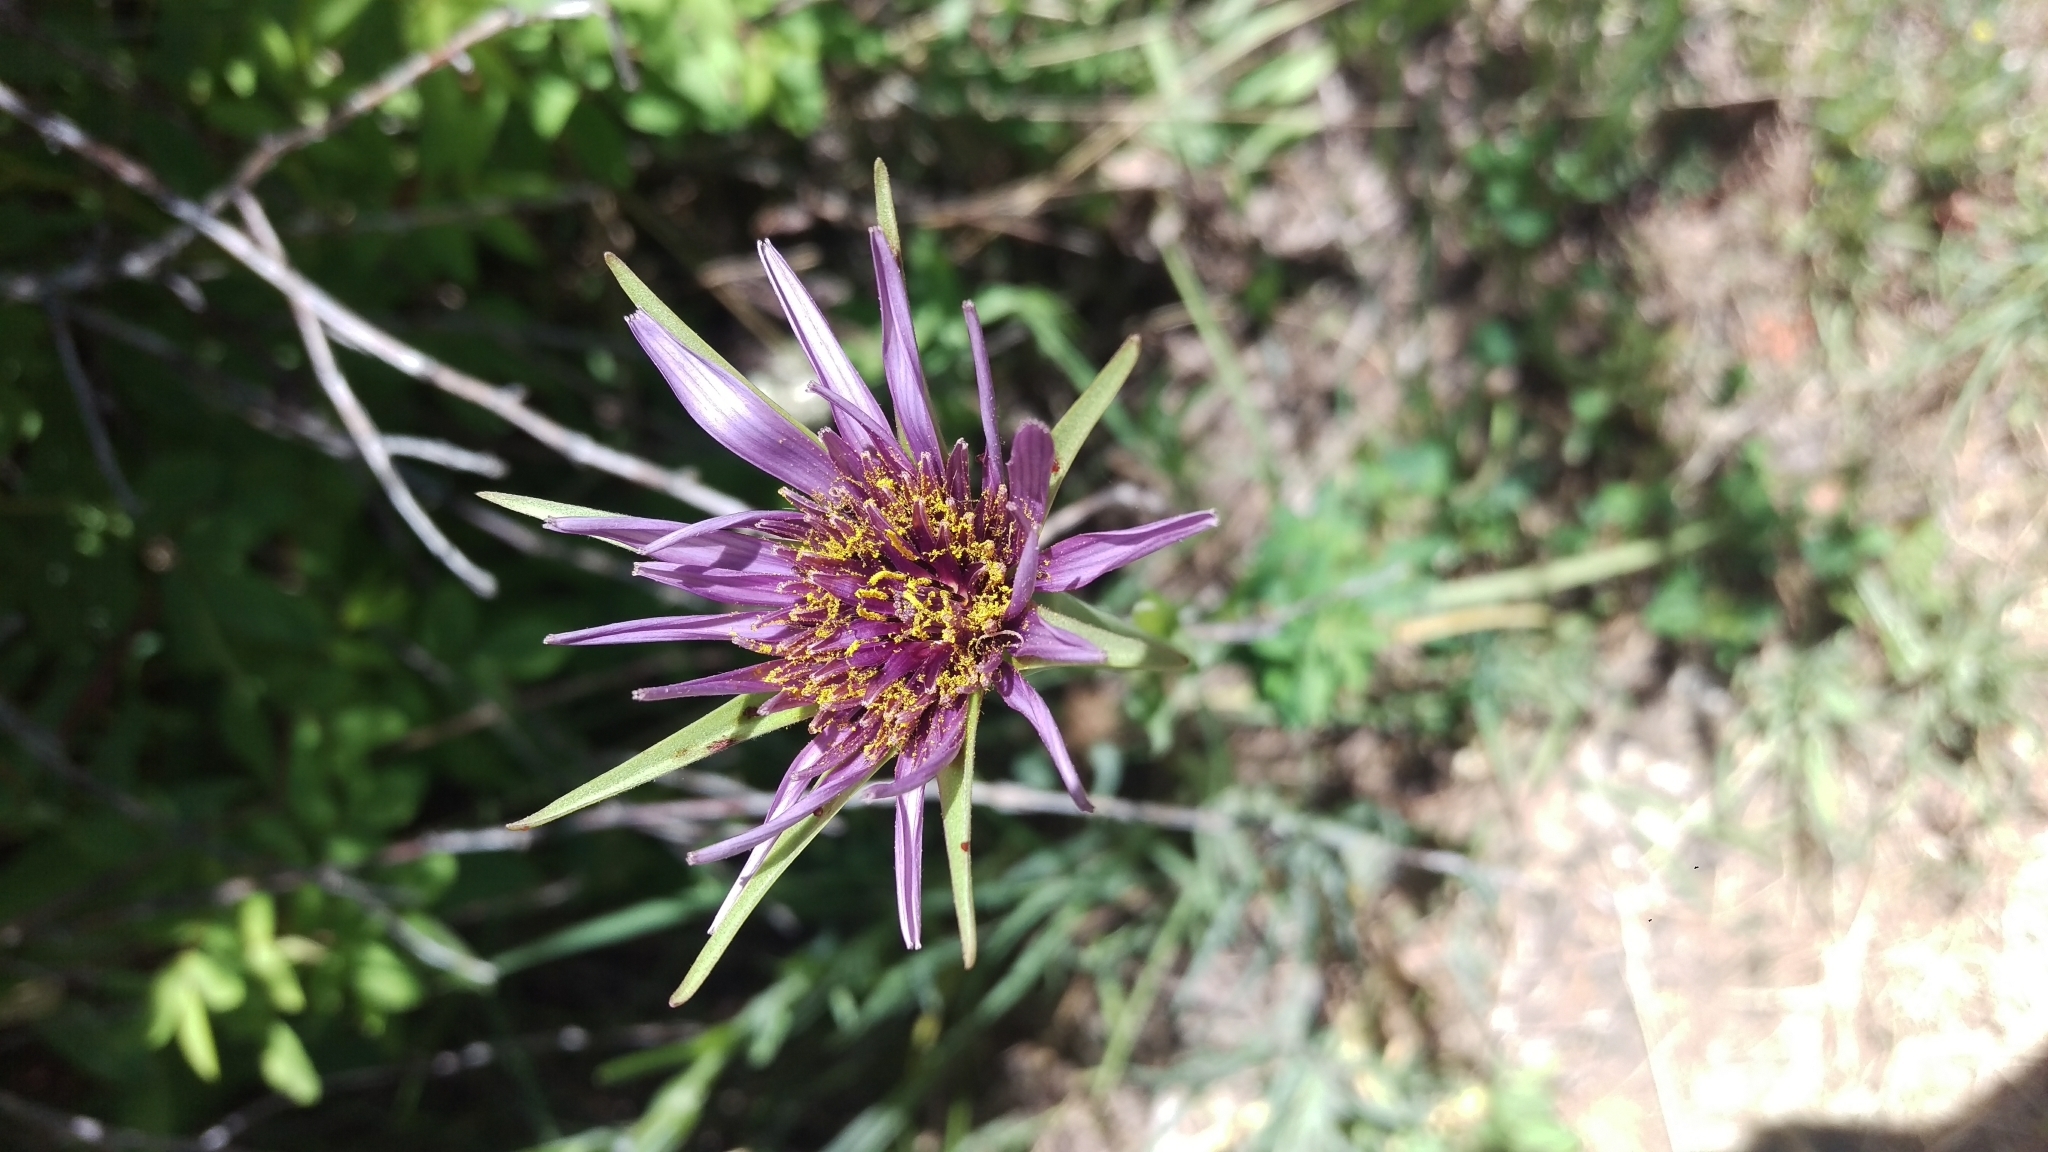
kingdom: Plantae
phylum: Tracheophyta
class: Magnoliopsida
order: Asterales
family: Asteraceae
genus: Tragopogon
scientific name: Tragopogon porrifolius
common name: Salsify
